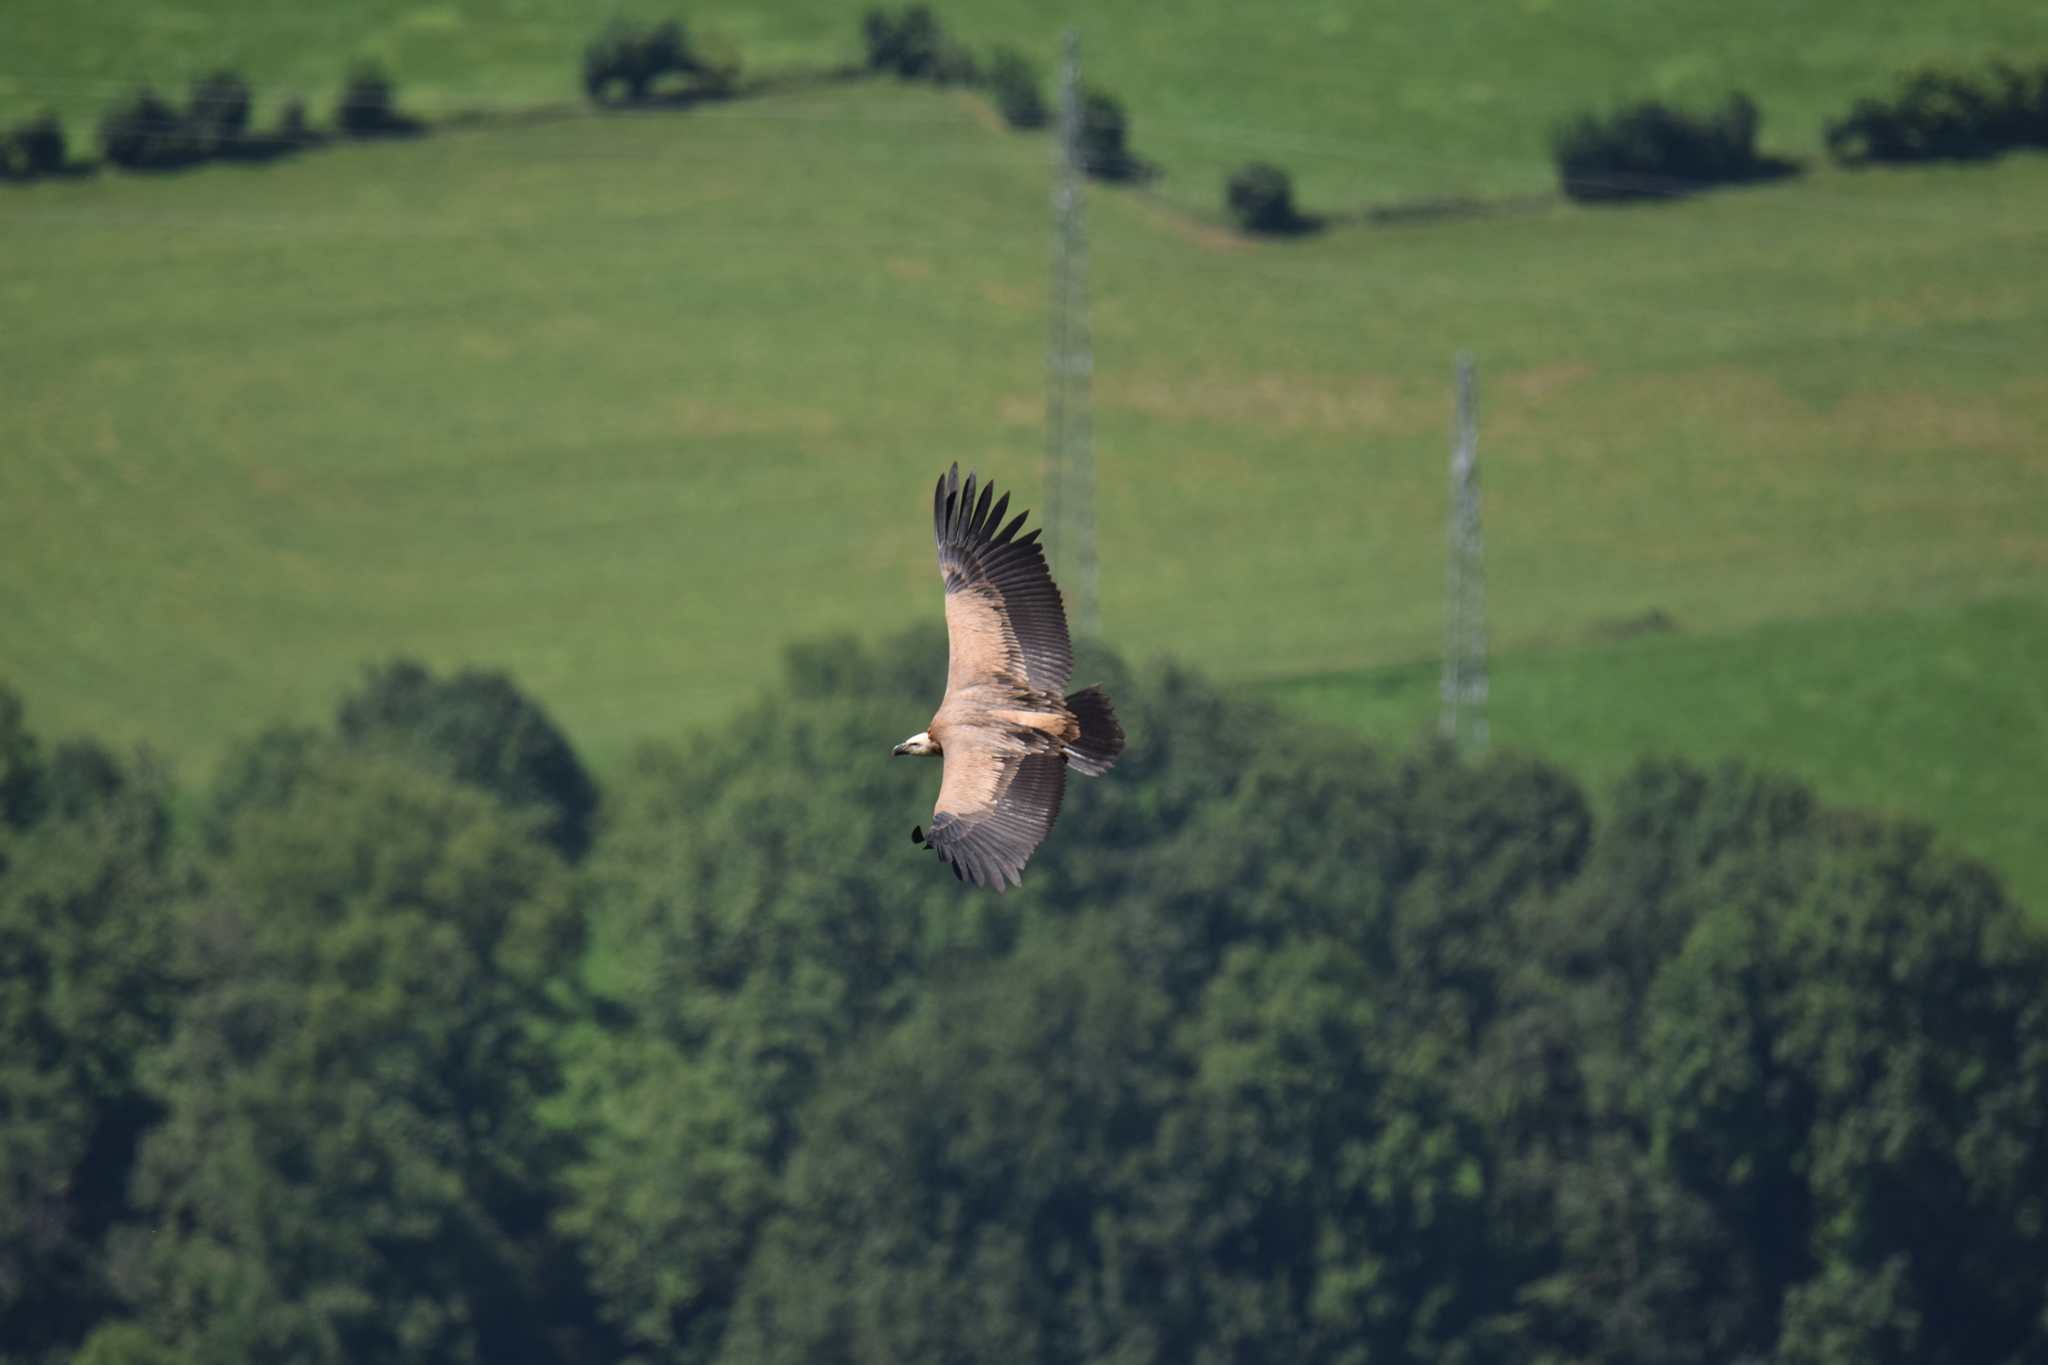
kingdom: Animalia
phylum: Chordata
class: Aves
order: Accipitriformes
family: Accipitridae
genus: Gyps
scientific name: Gyps fulvus
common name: Griffon vulture
